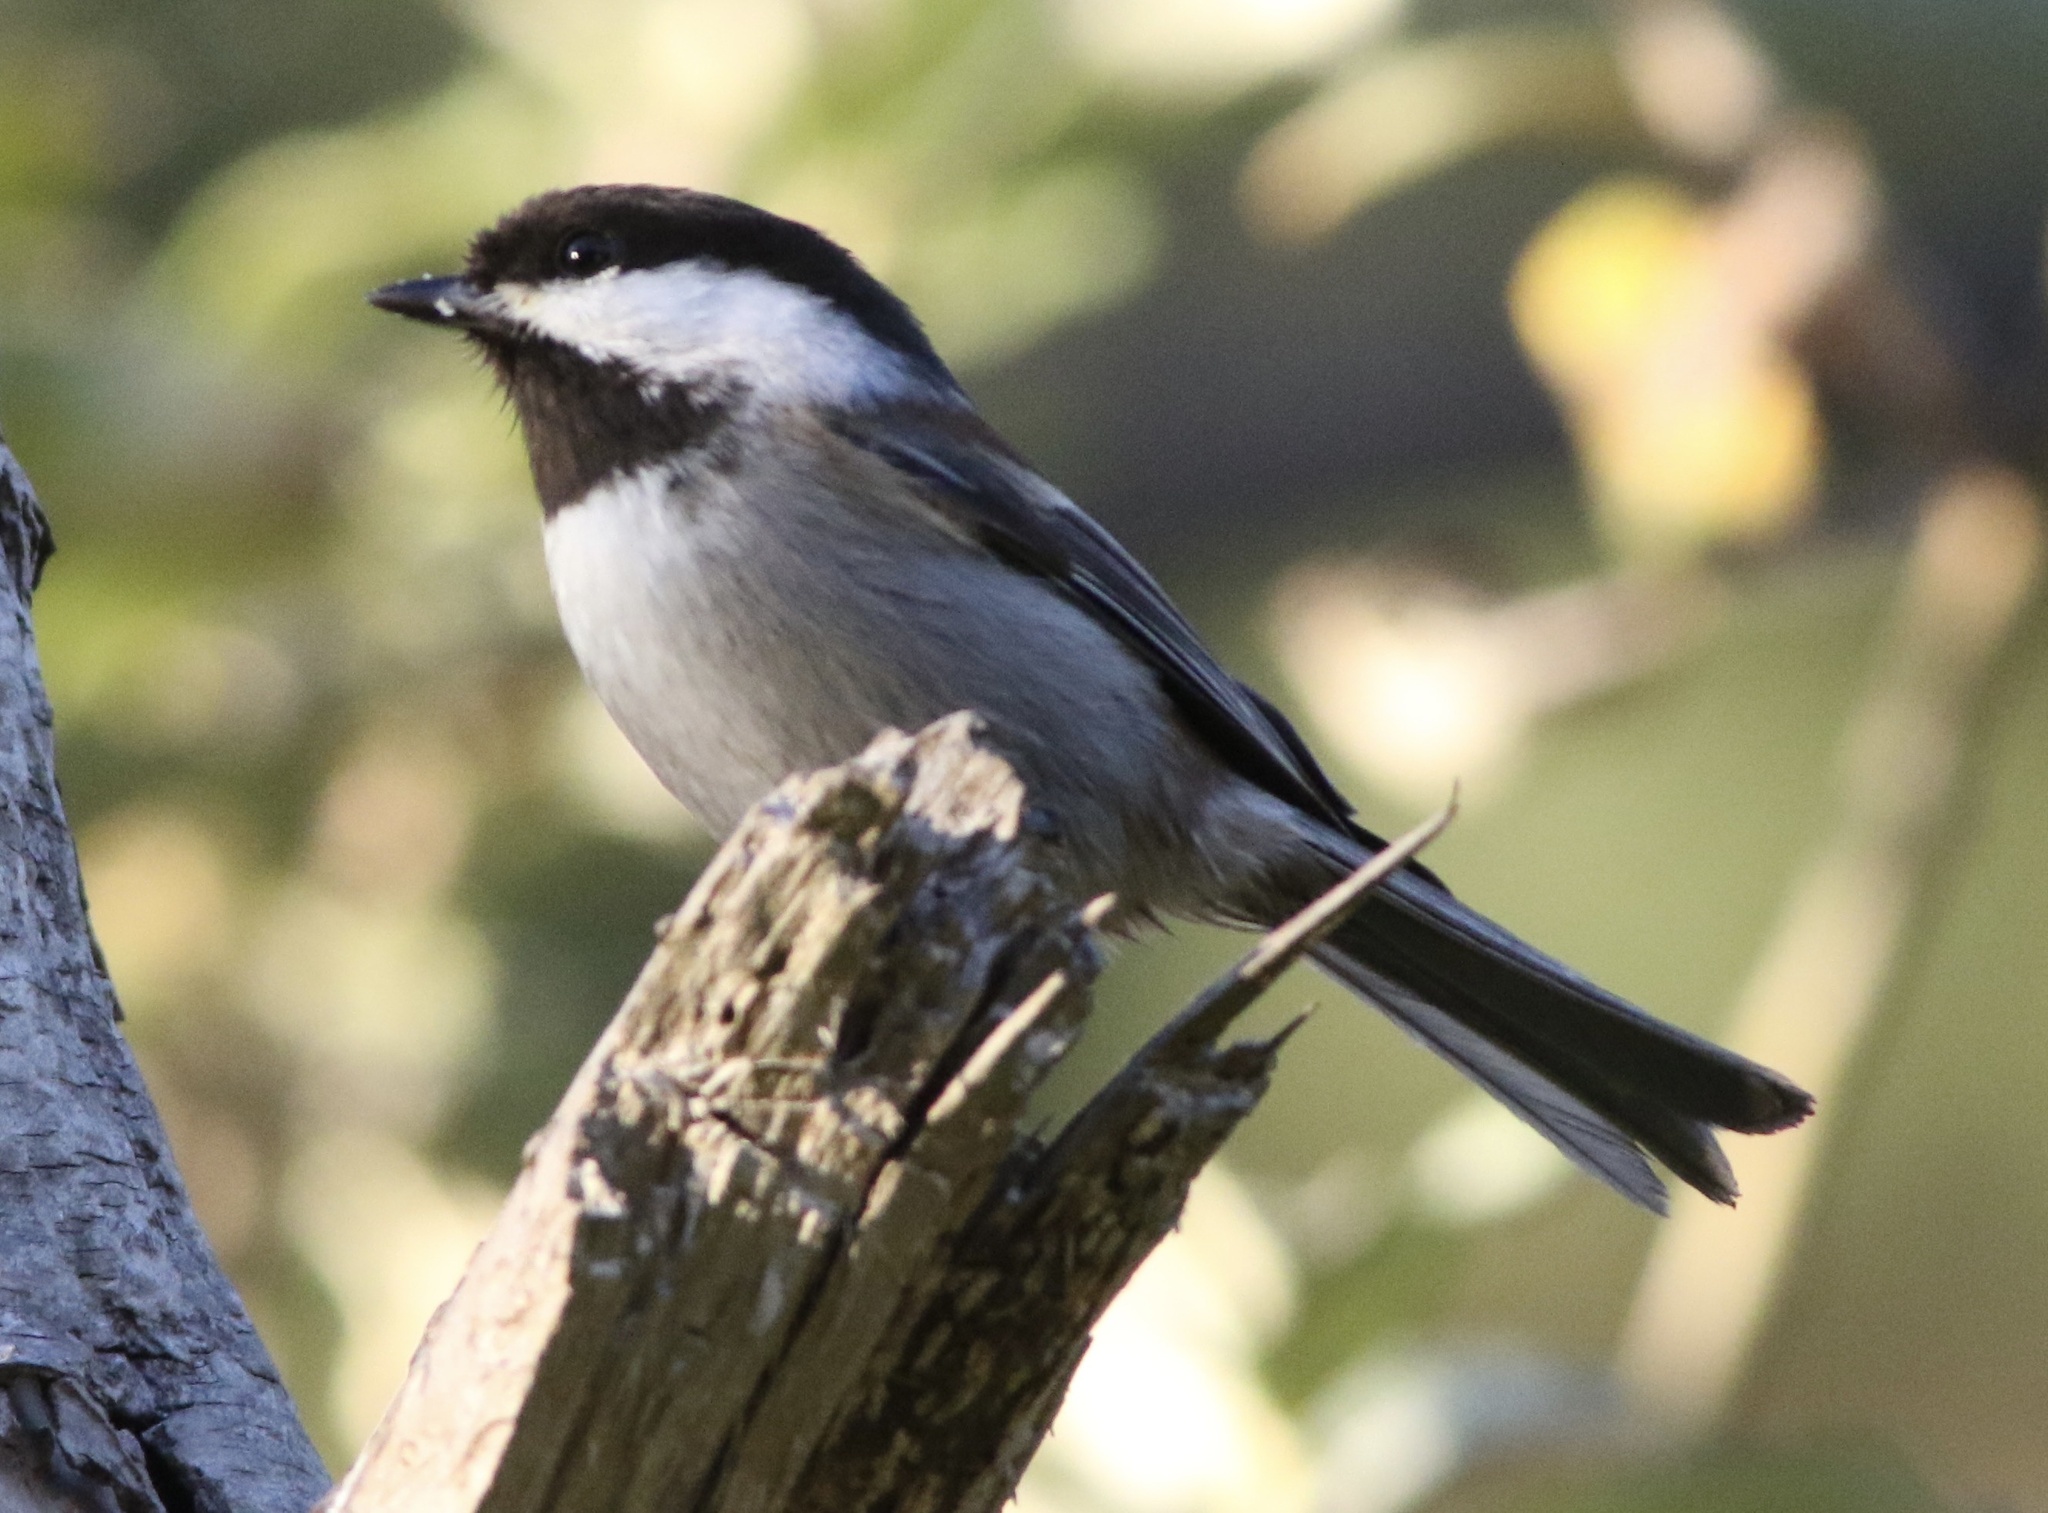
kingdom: Animalia
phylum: Chordata
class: Aves
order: Passeriformes
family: Paridae
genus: Poecile
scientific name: Poecile rufescens
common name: Chestnut-backed chickadee
